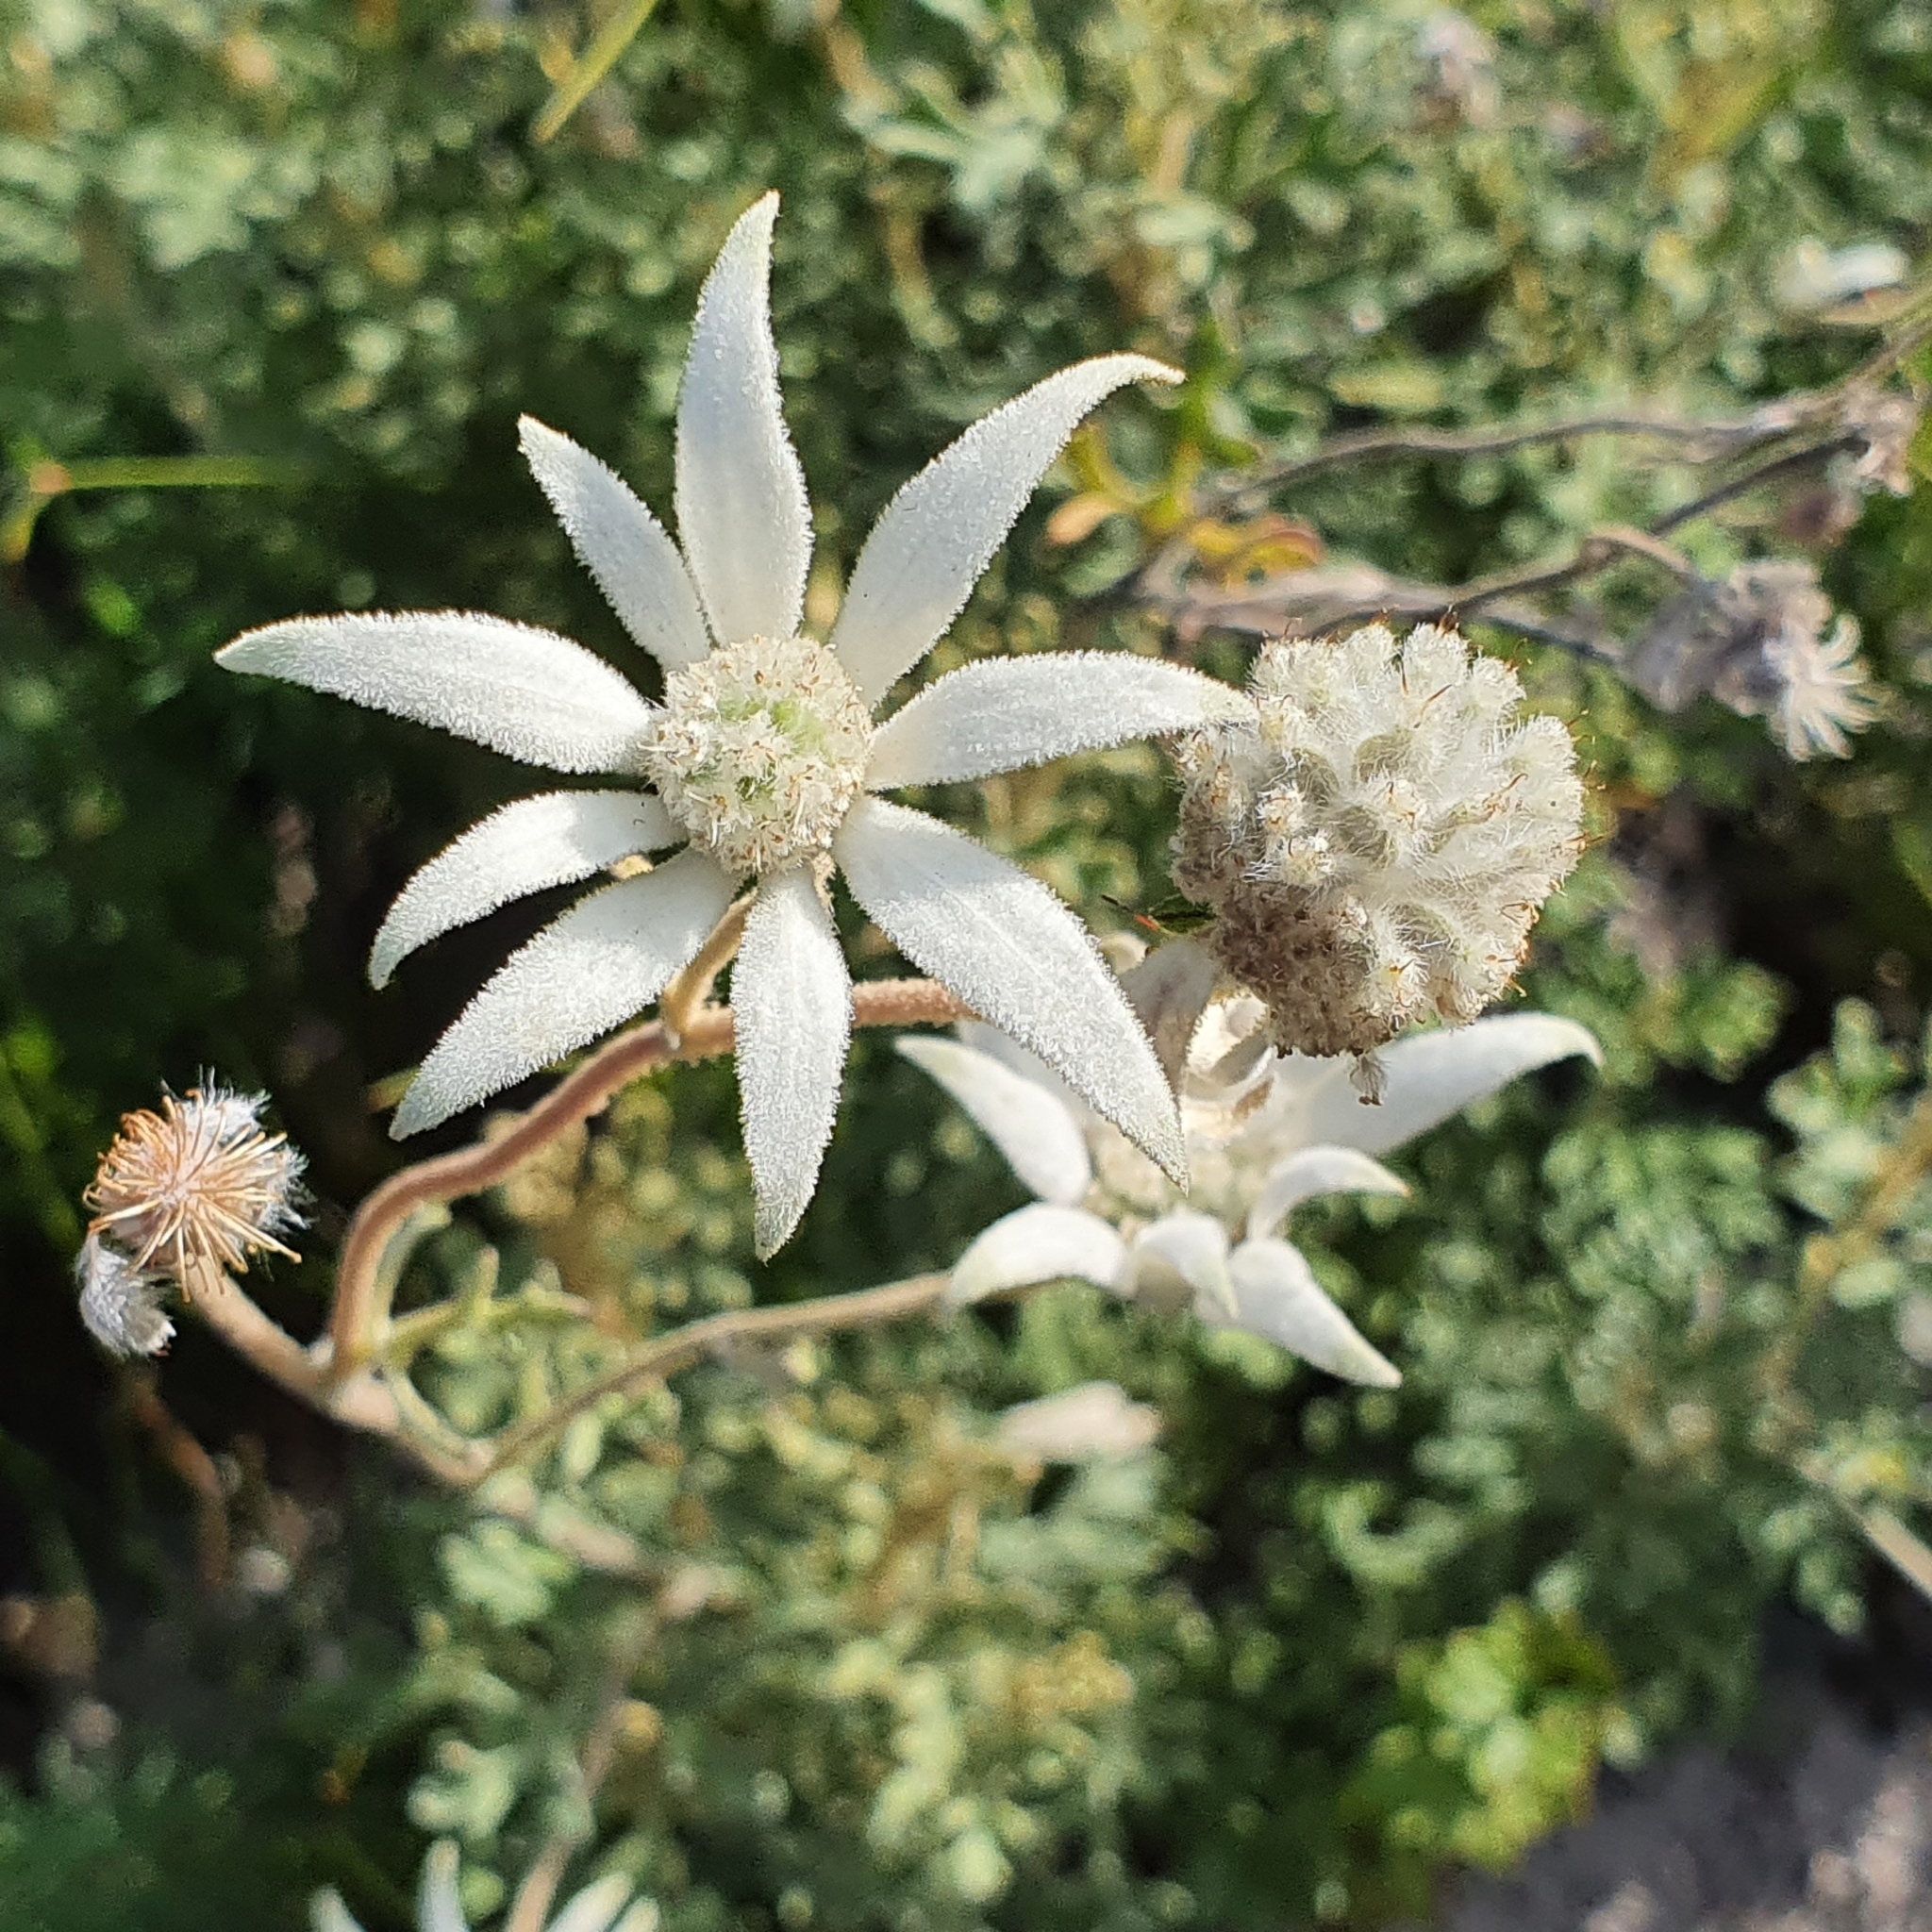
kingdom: Plantae
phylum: Tracheophyta
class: Magnoliopsida
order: Apiales
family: Apiaceae
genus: Actinotus
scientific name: Actinotus helianthi
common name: Flannel-flower
